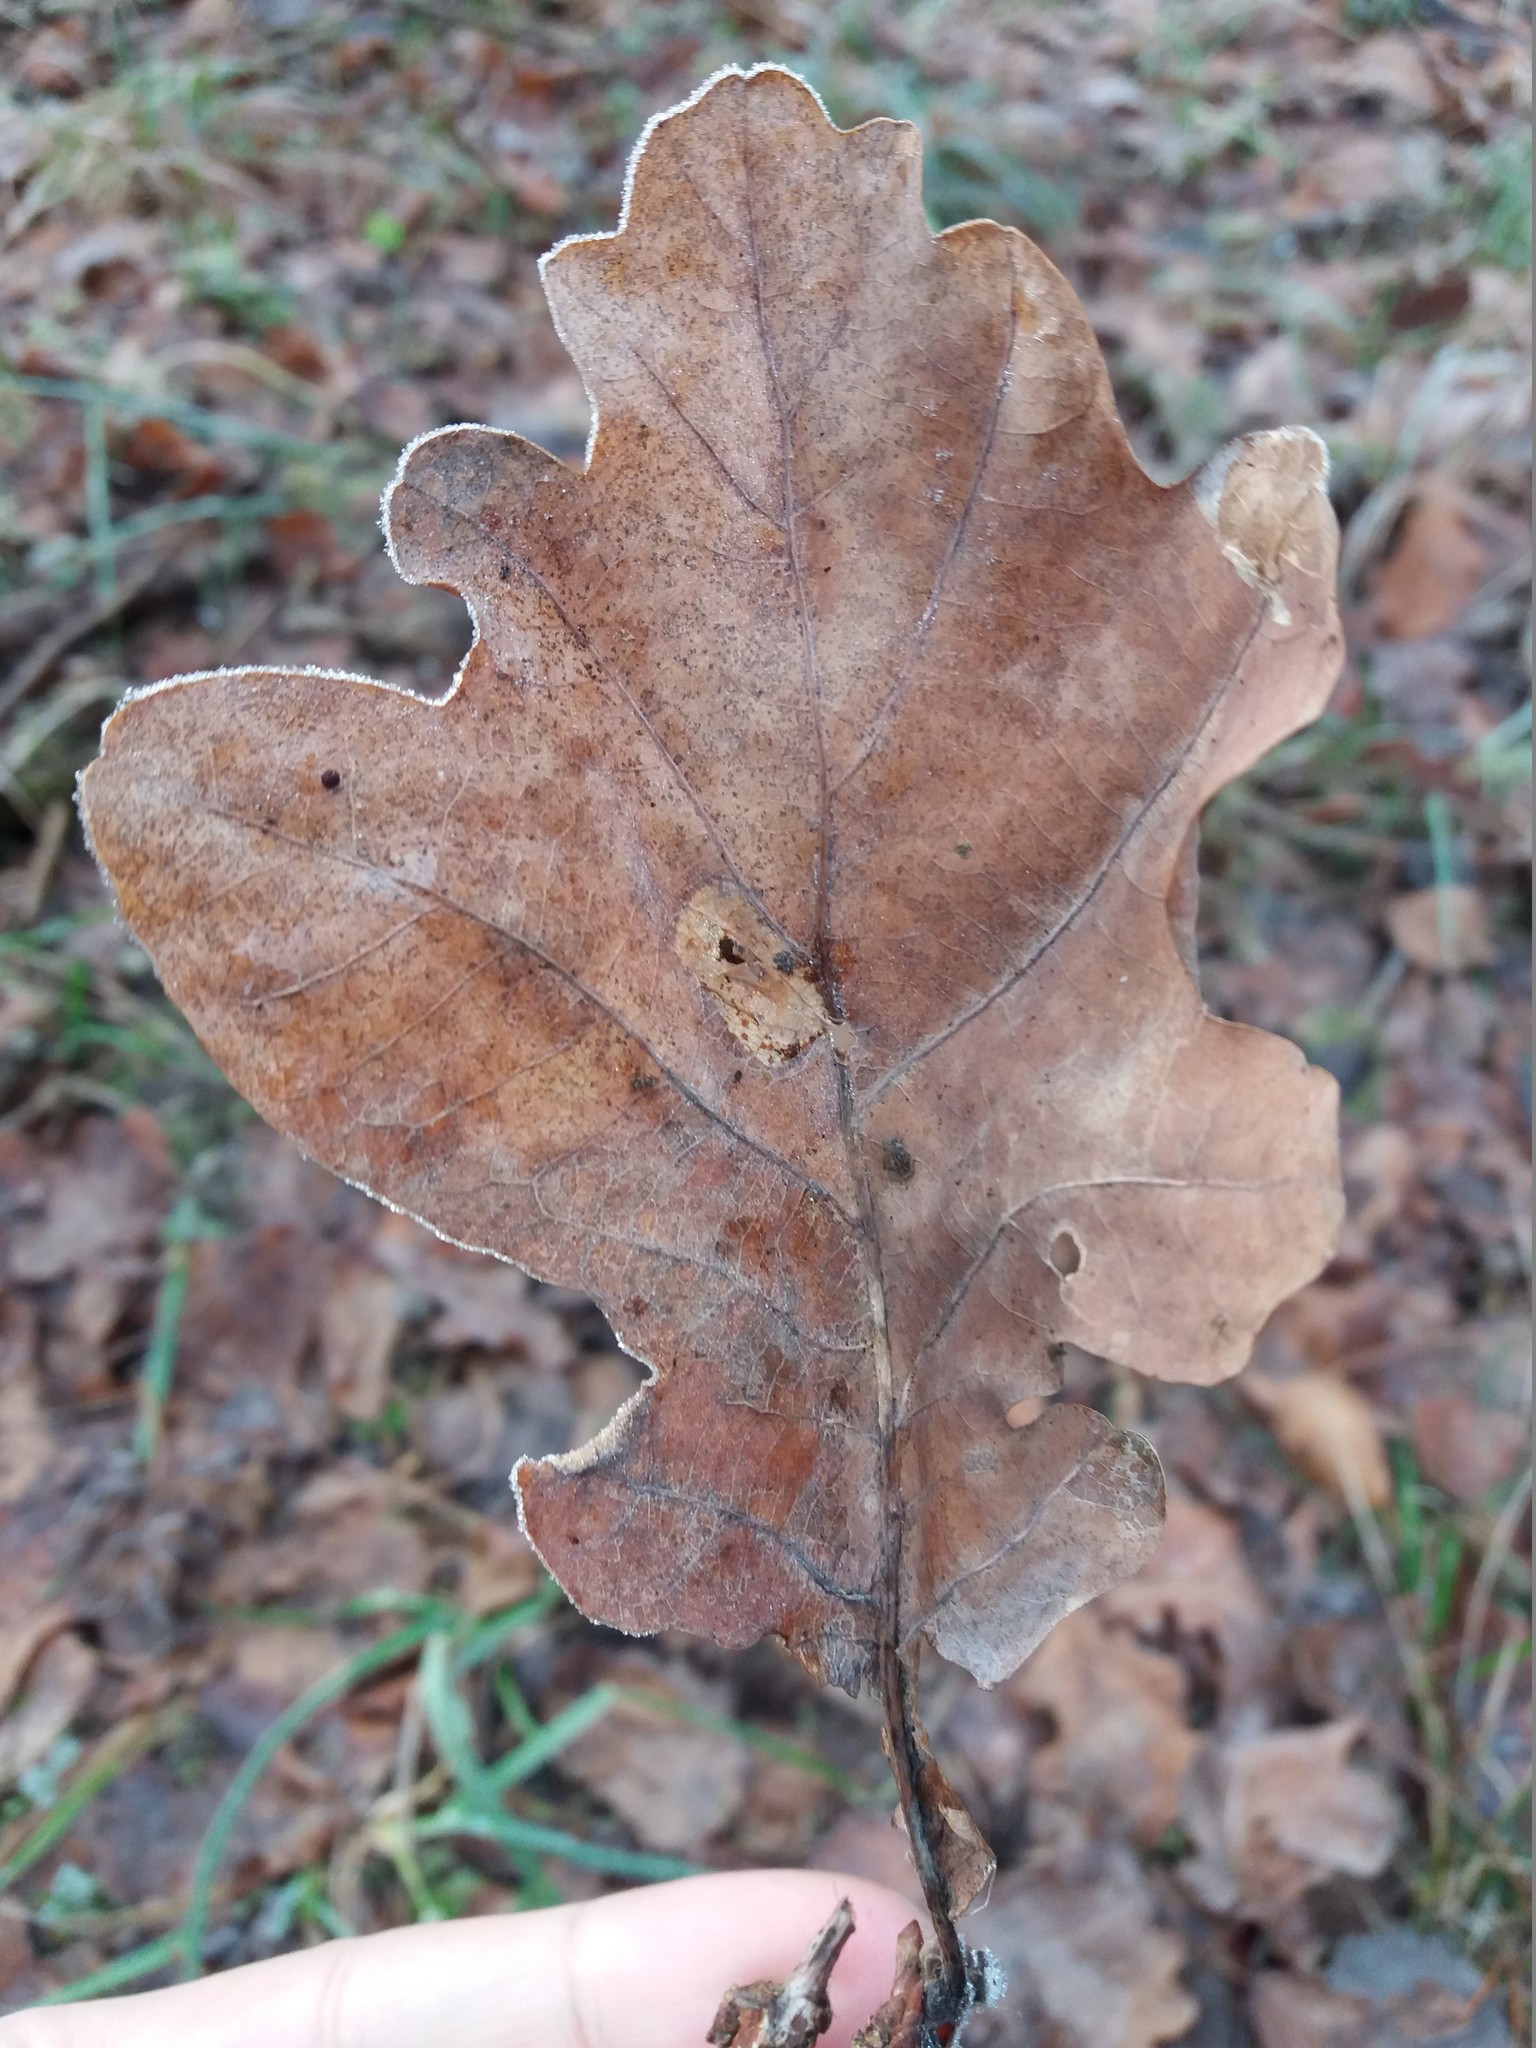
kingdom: Plantae
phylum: Tracheophyta
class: Magnoliopsida
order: Fagales
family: Fagaceae
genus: Quercus
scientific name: Quercus robur
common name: Pedunculate oak
